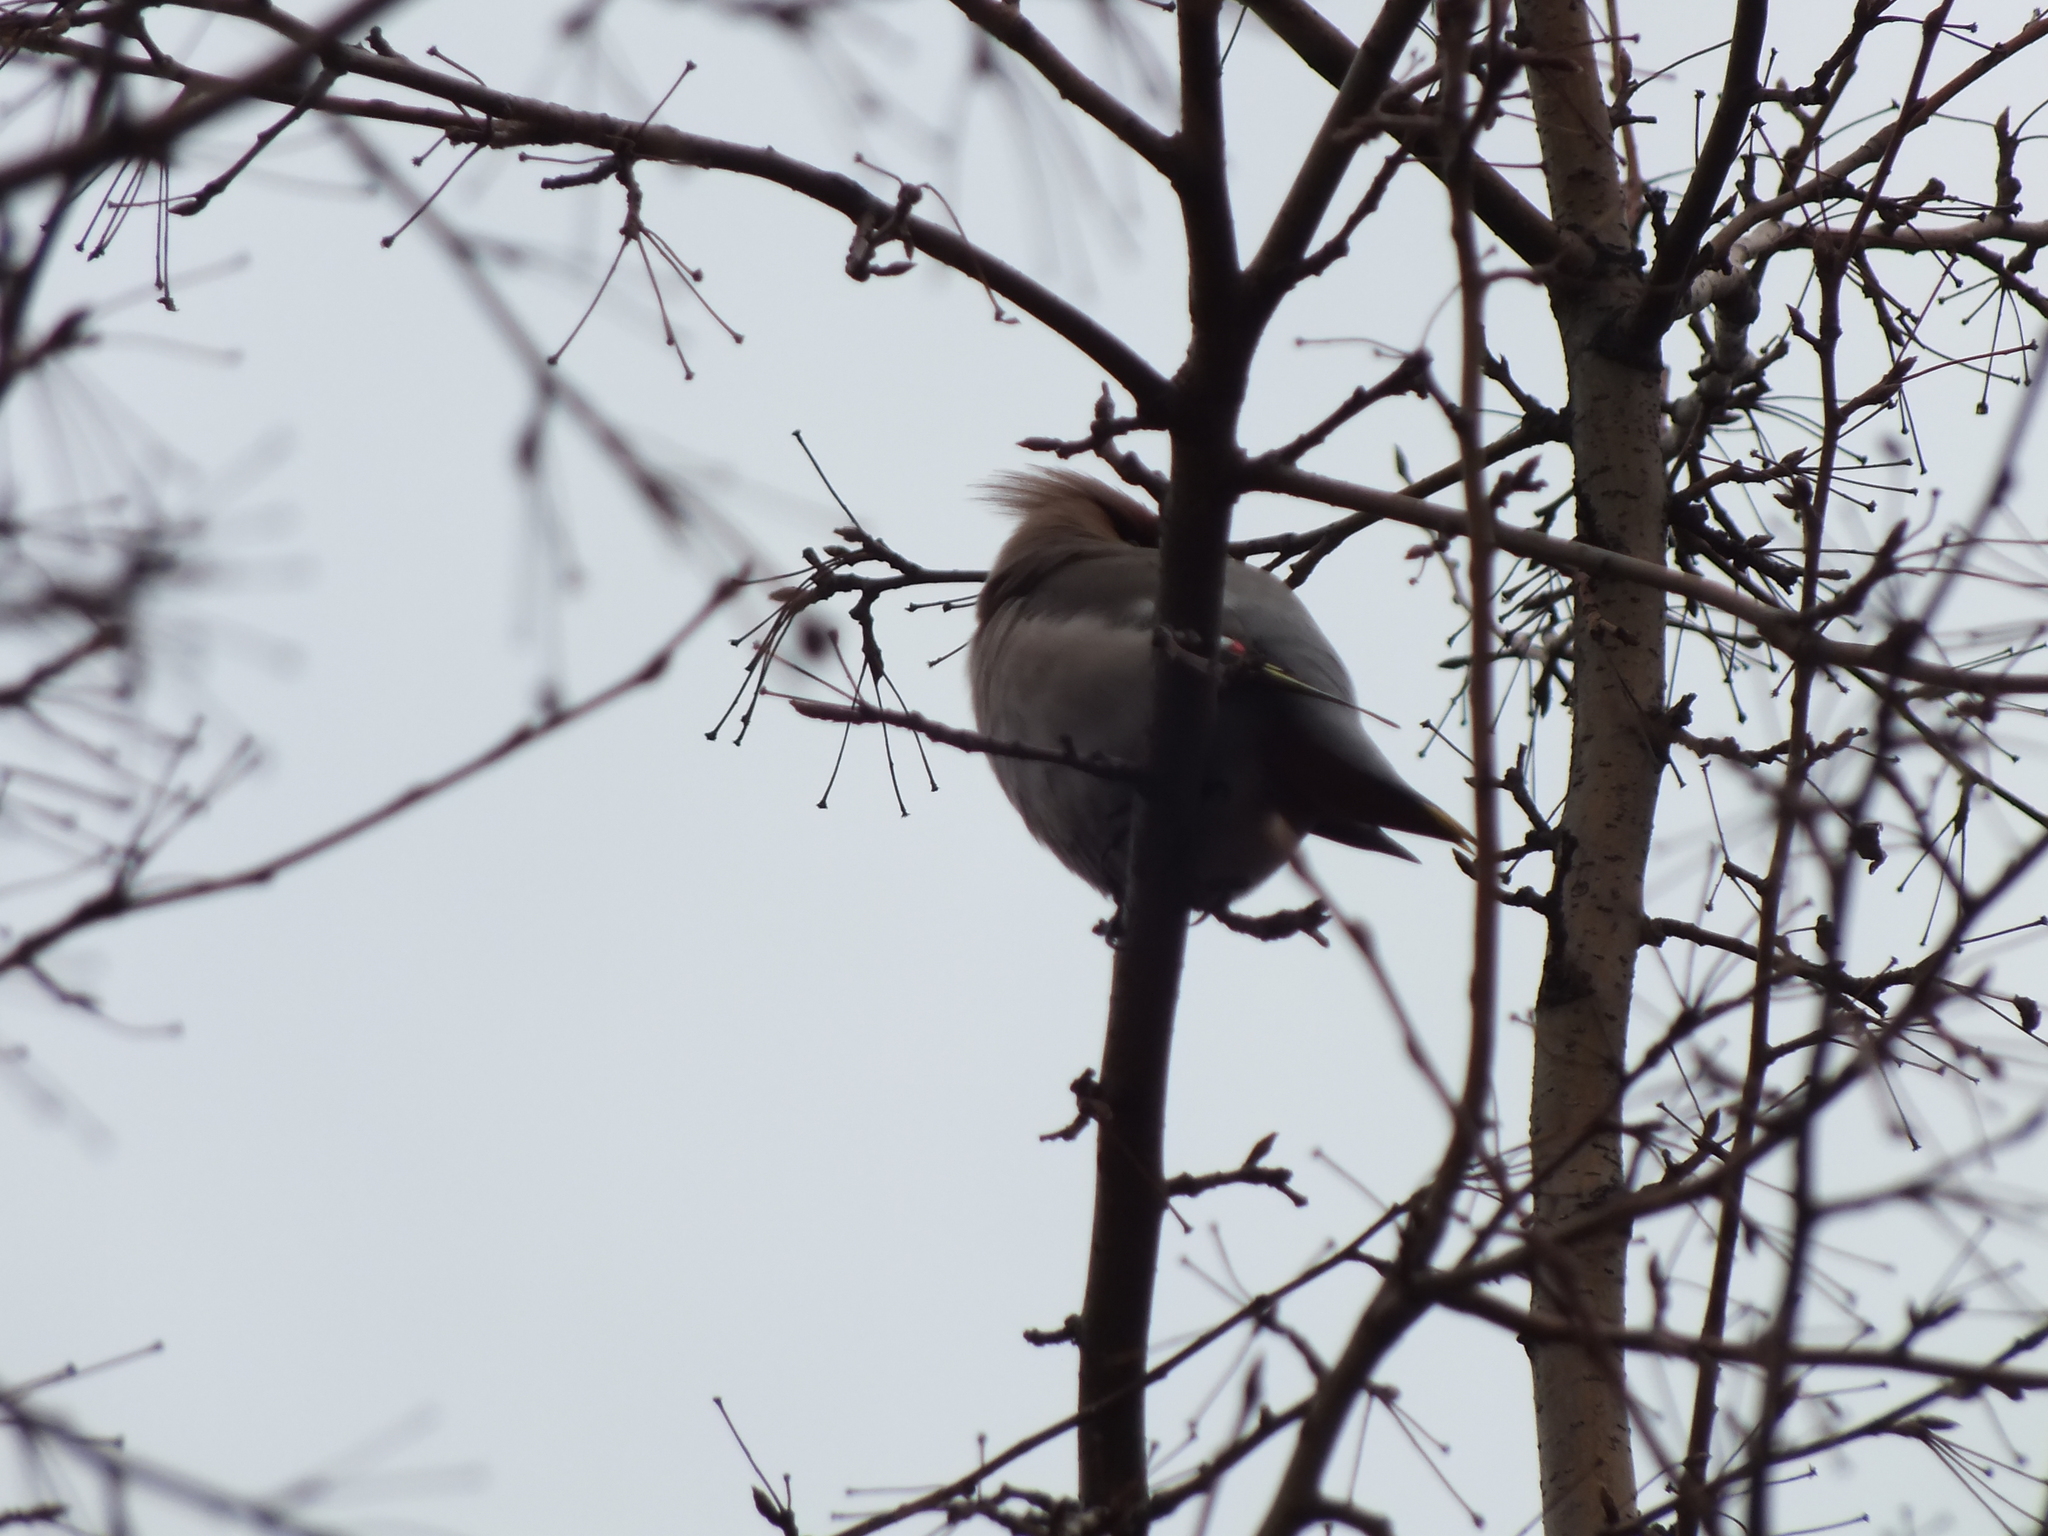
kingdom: Animalia
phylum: Chordata
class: Aves
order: Passeriformes
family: Bombycillidae
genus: Bombycilla
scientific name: Bombycilla garrulus
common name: Bohemian waxwing
